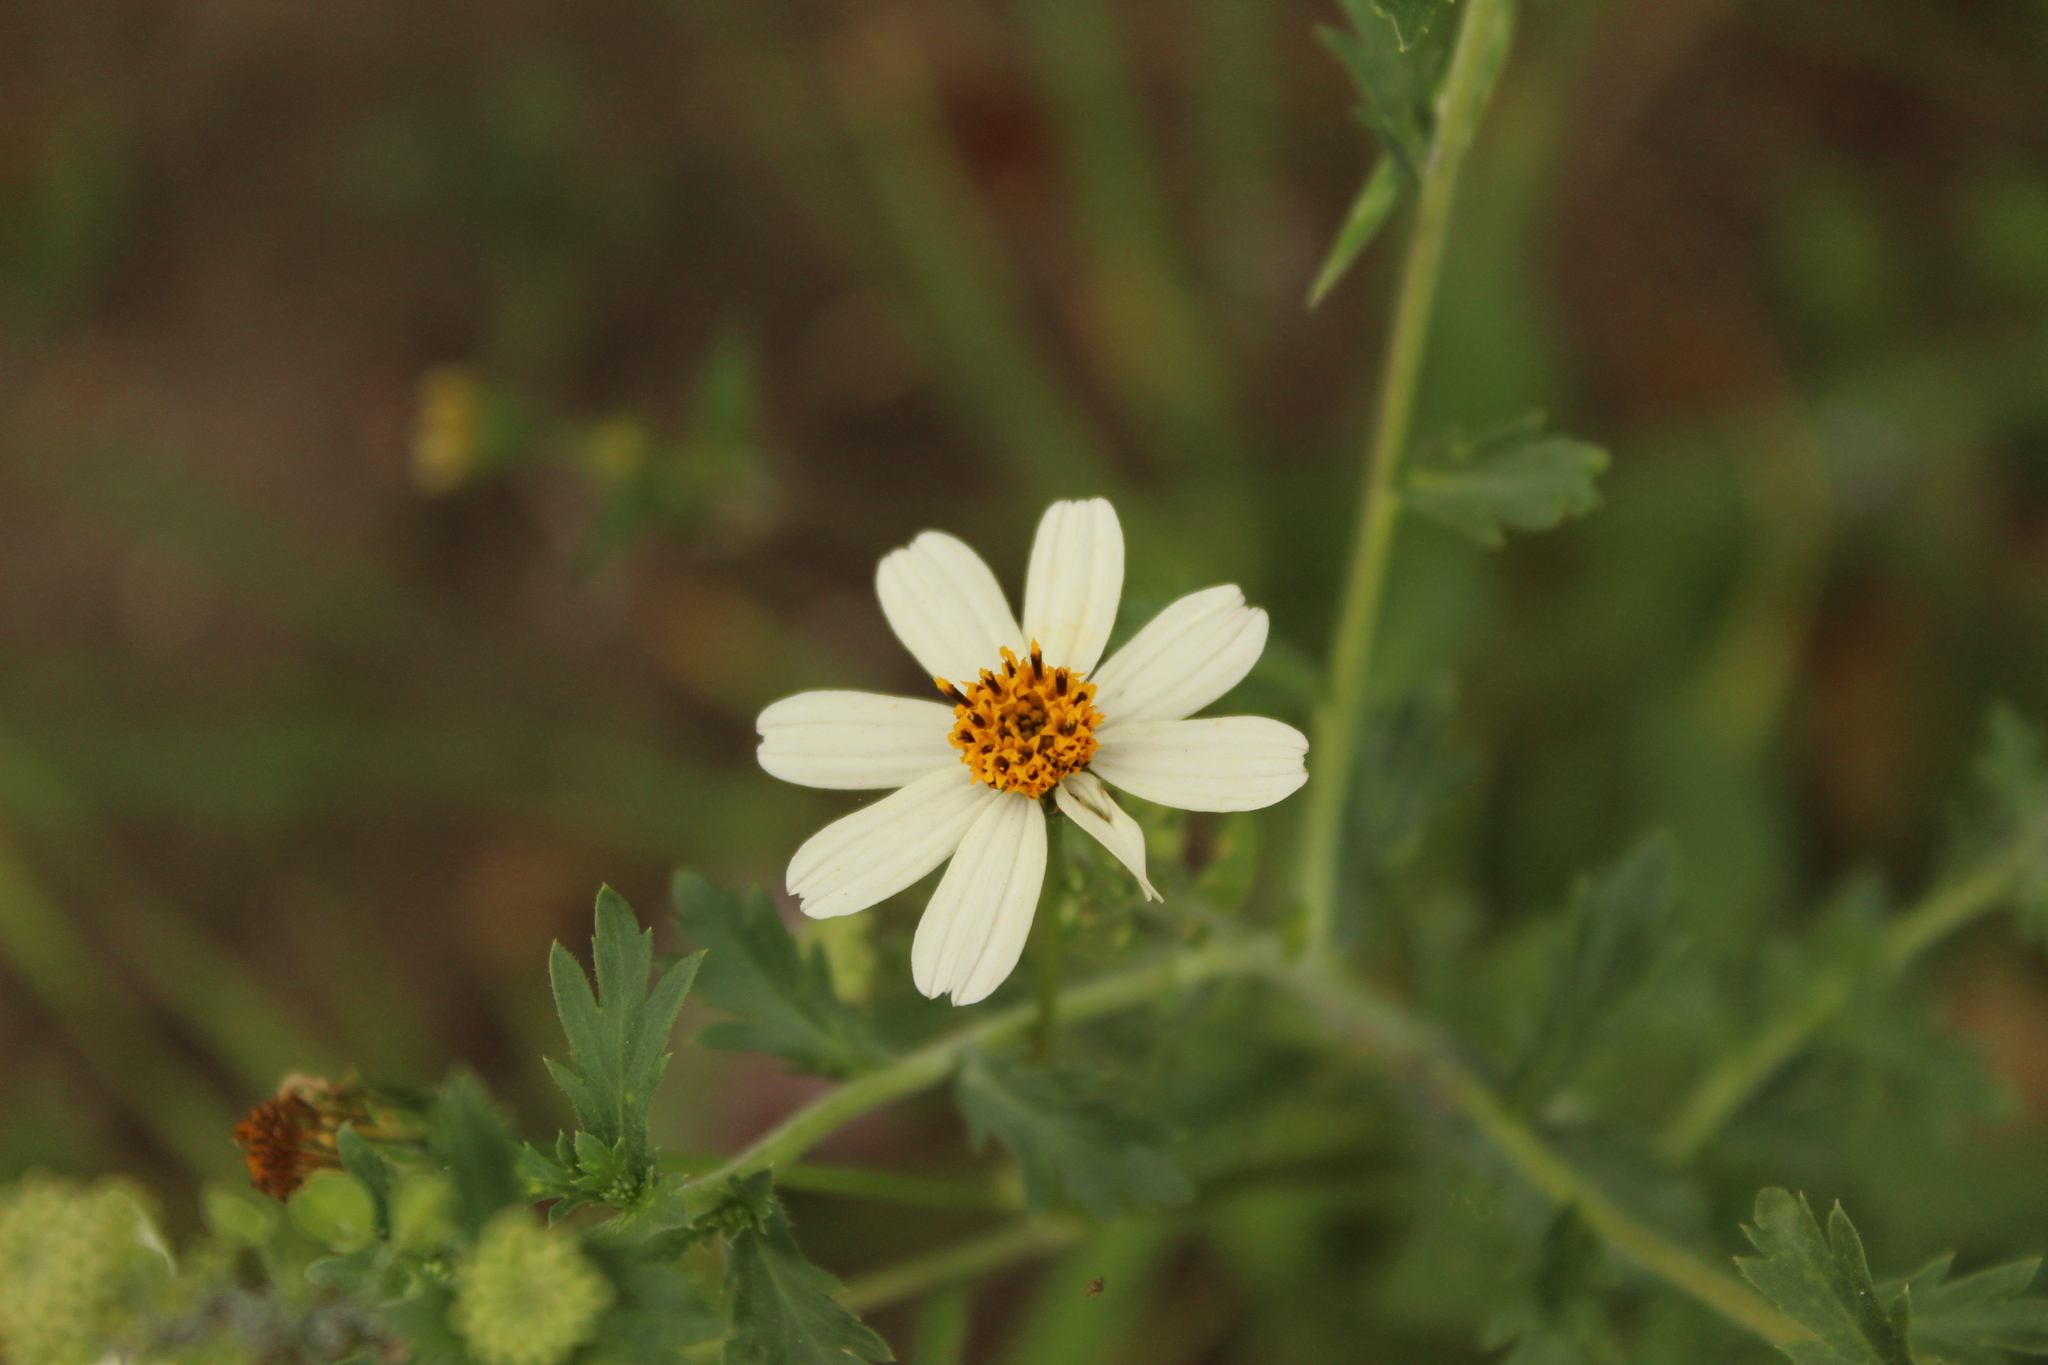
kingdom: Plantae
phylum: Tracheophyta
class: Magnoliopsida
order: Asterales
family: Asteraceae
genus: Bidens
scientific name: Bidens alba
